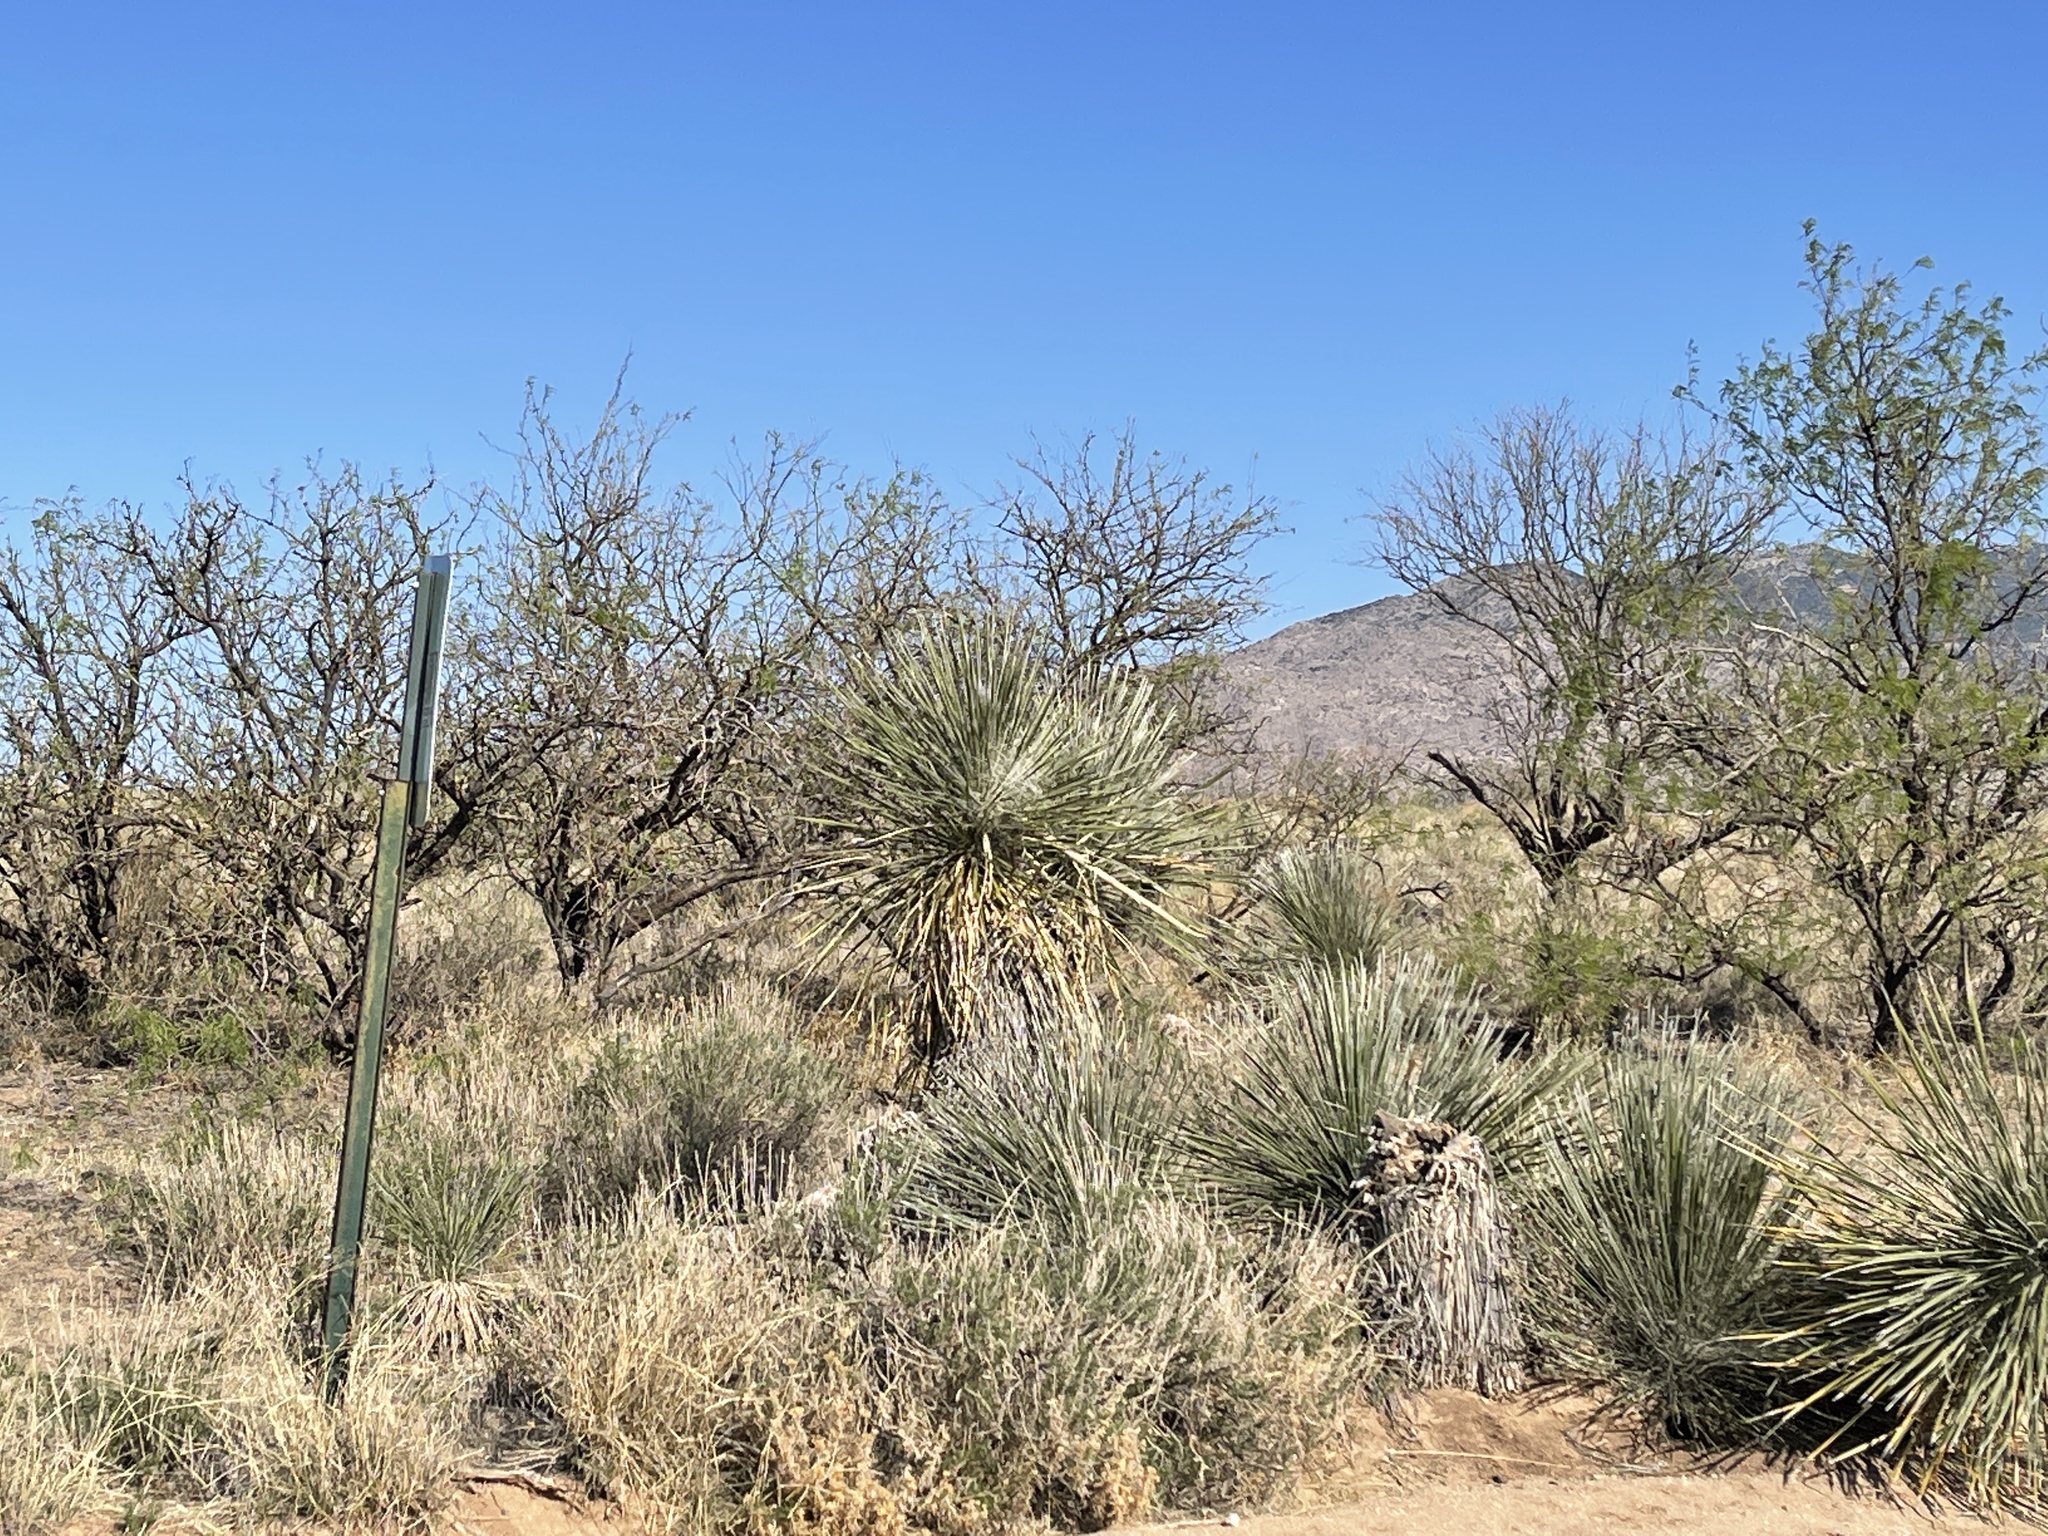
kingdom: Plantae
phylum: Tracheophyta
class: Liliopsida
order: Asparagales
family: Asparagaceae
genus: Yucca
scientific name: Yucca elata
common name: Palmella
